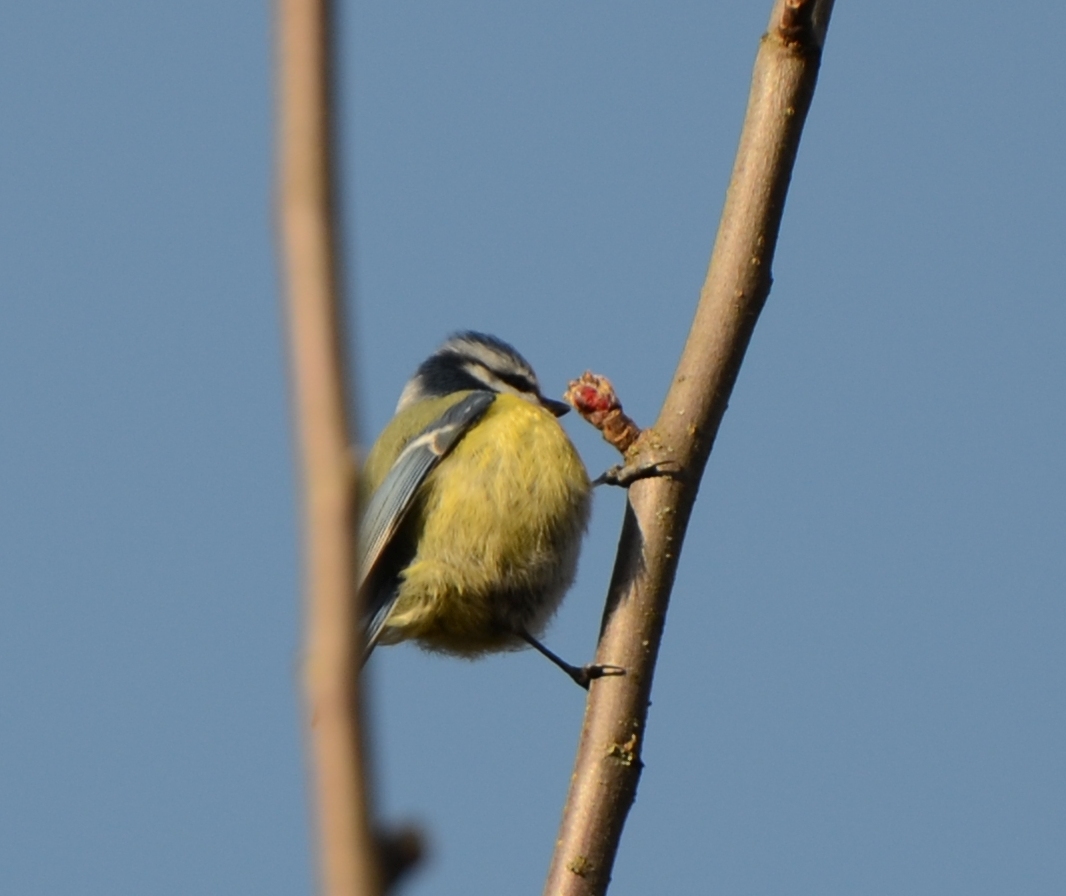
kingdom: Animalia
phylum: Chordata
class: Aves
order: Passeriformes
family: Paridae
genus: Cyanistes
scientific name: Cyanistes caeruleus
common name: Eurasian blue tit
